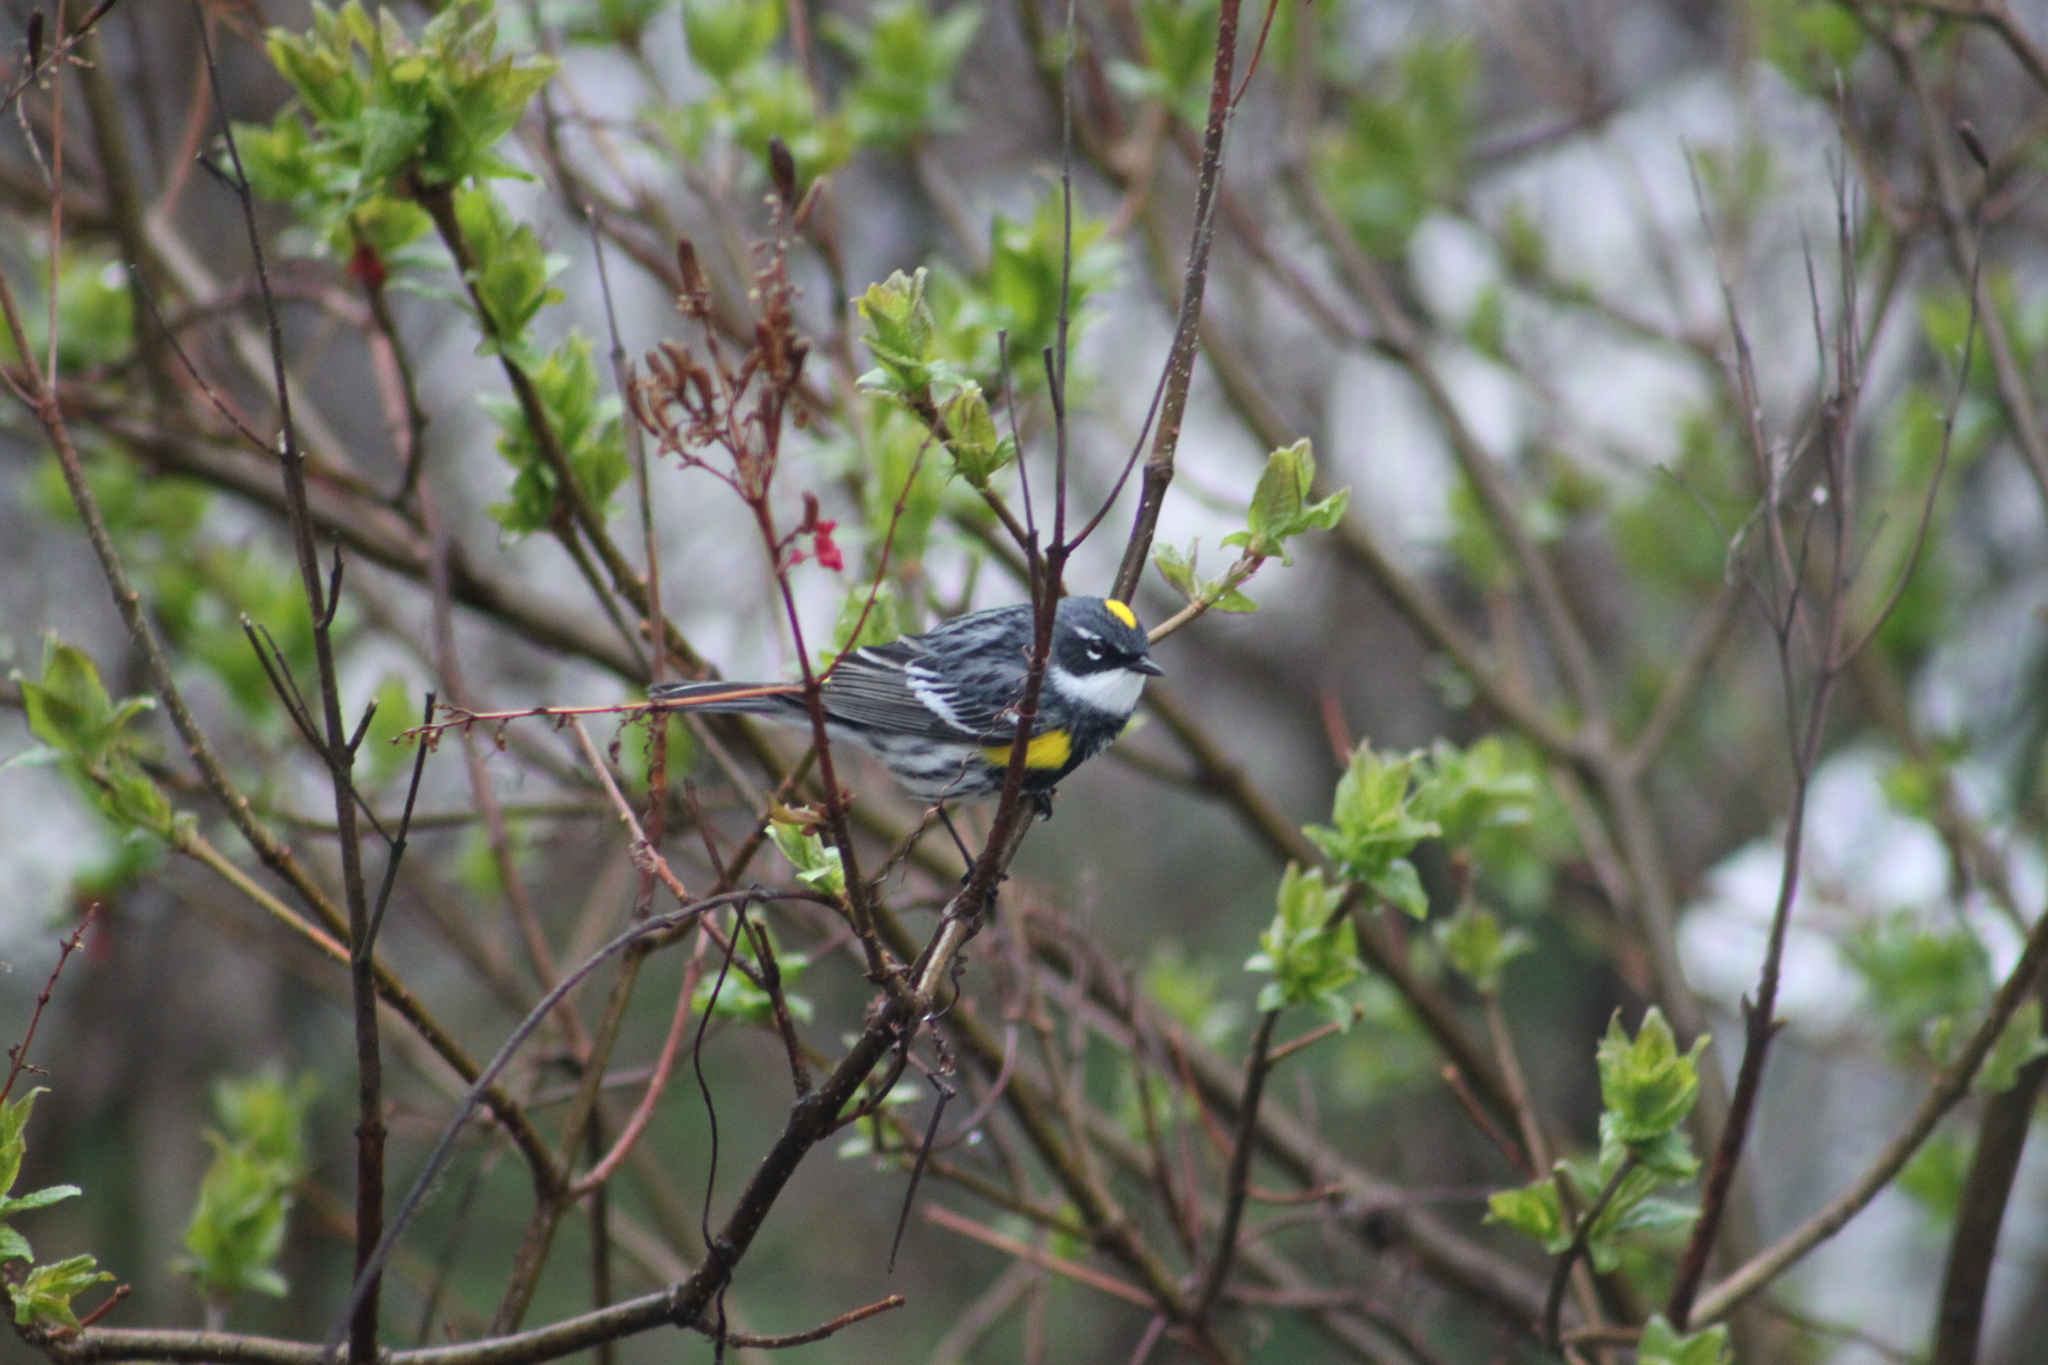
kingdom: Animalia
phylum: Chordata
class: Aves
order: Passeriformes
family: Parulidae
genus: Setophaga
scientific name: Setophaga coronata
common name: Myrtle warbler
